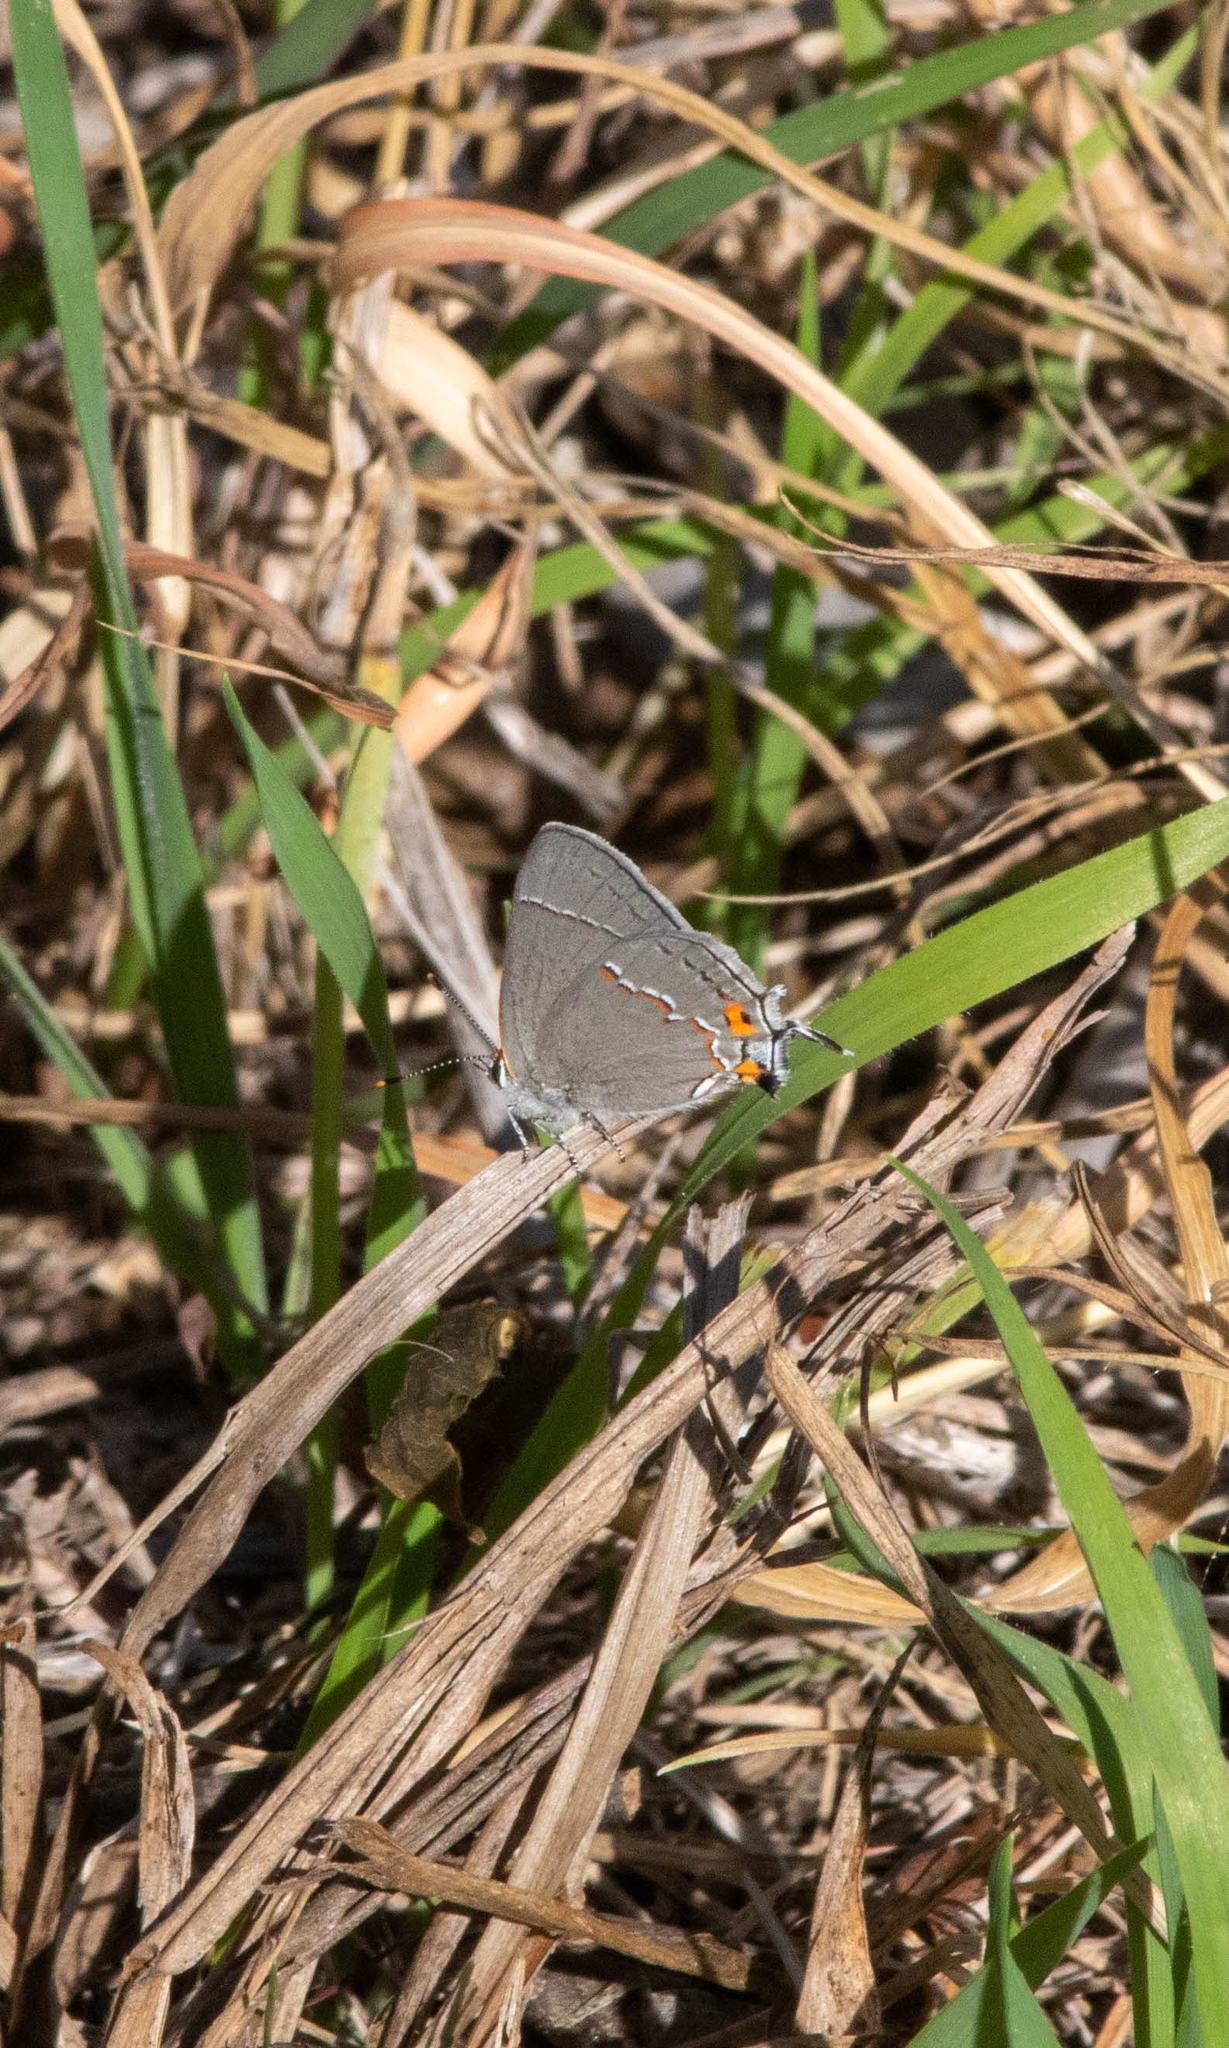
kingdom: Animalia
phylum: Arthropoda
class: Insecta
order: Lepidoptera
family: Lycaenidae
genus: Strymon
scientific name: Strymon melinus
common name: Gray hairstreak
